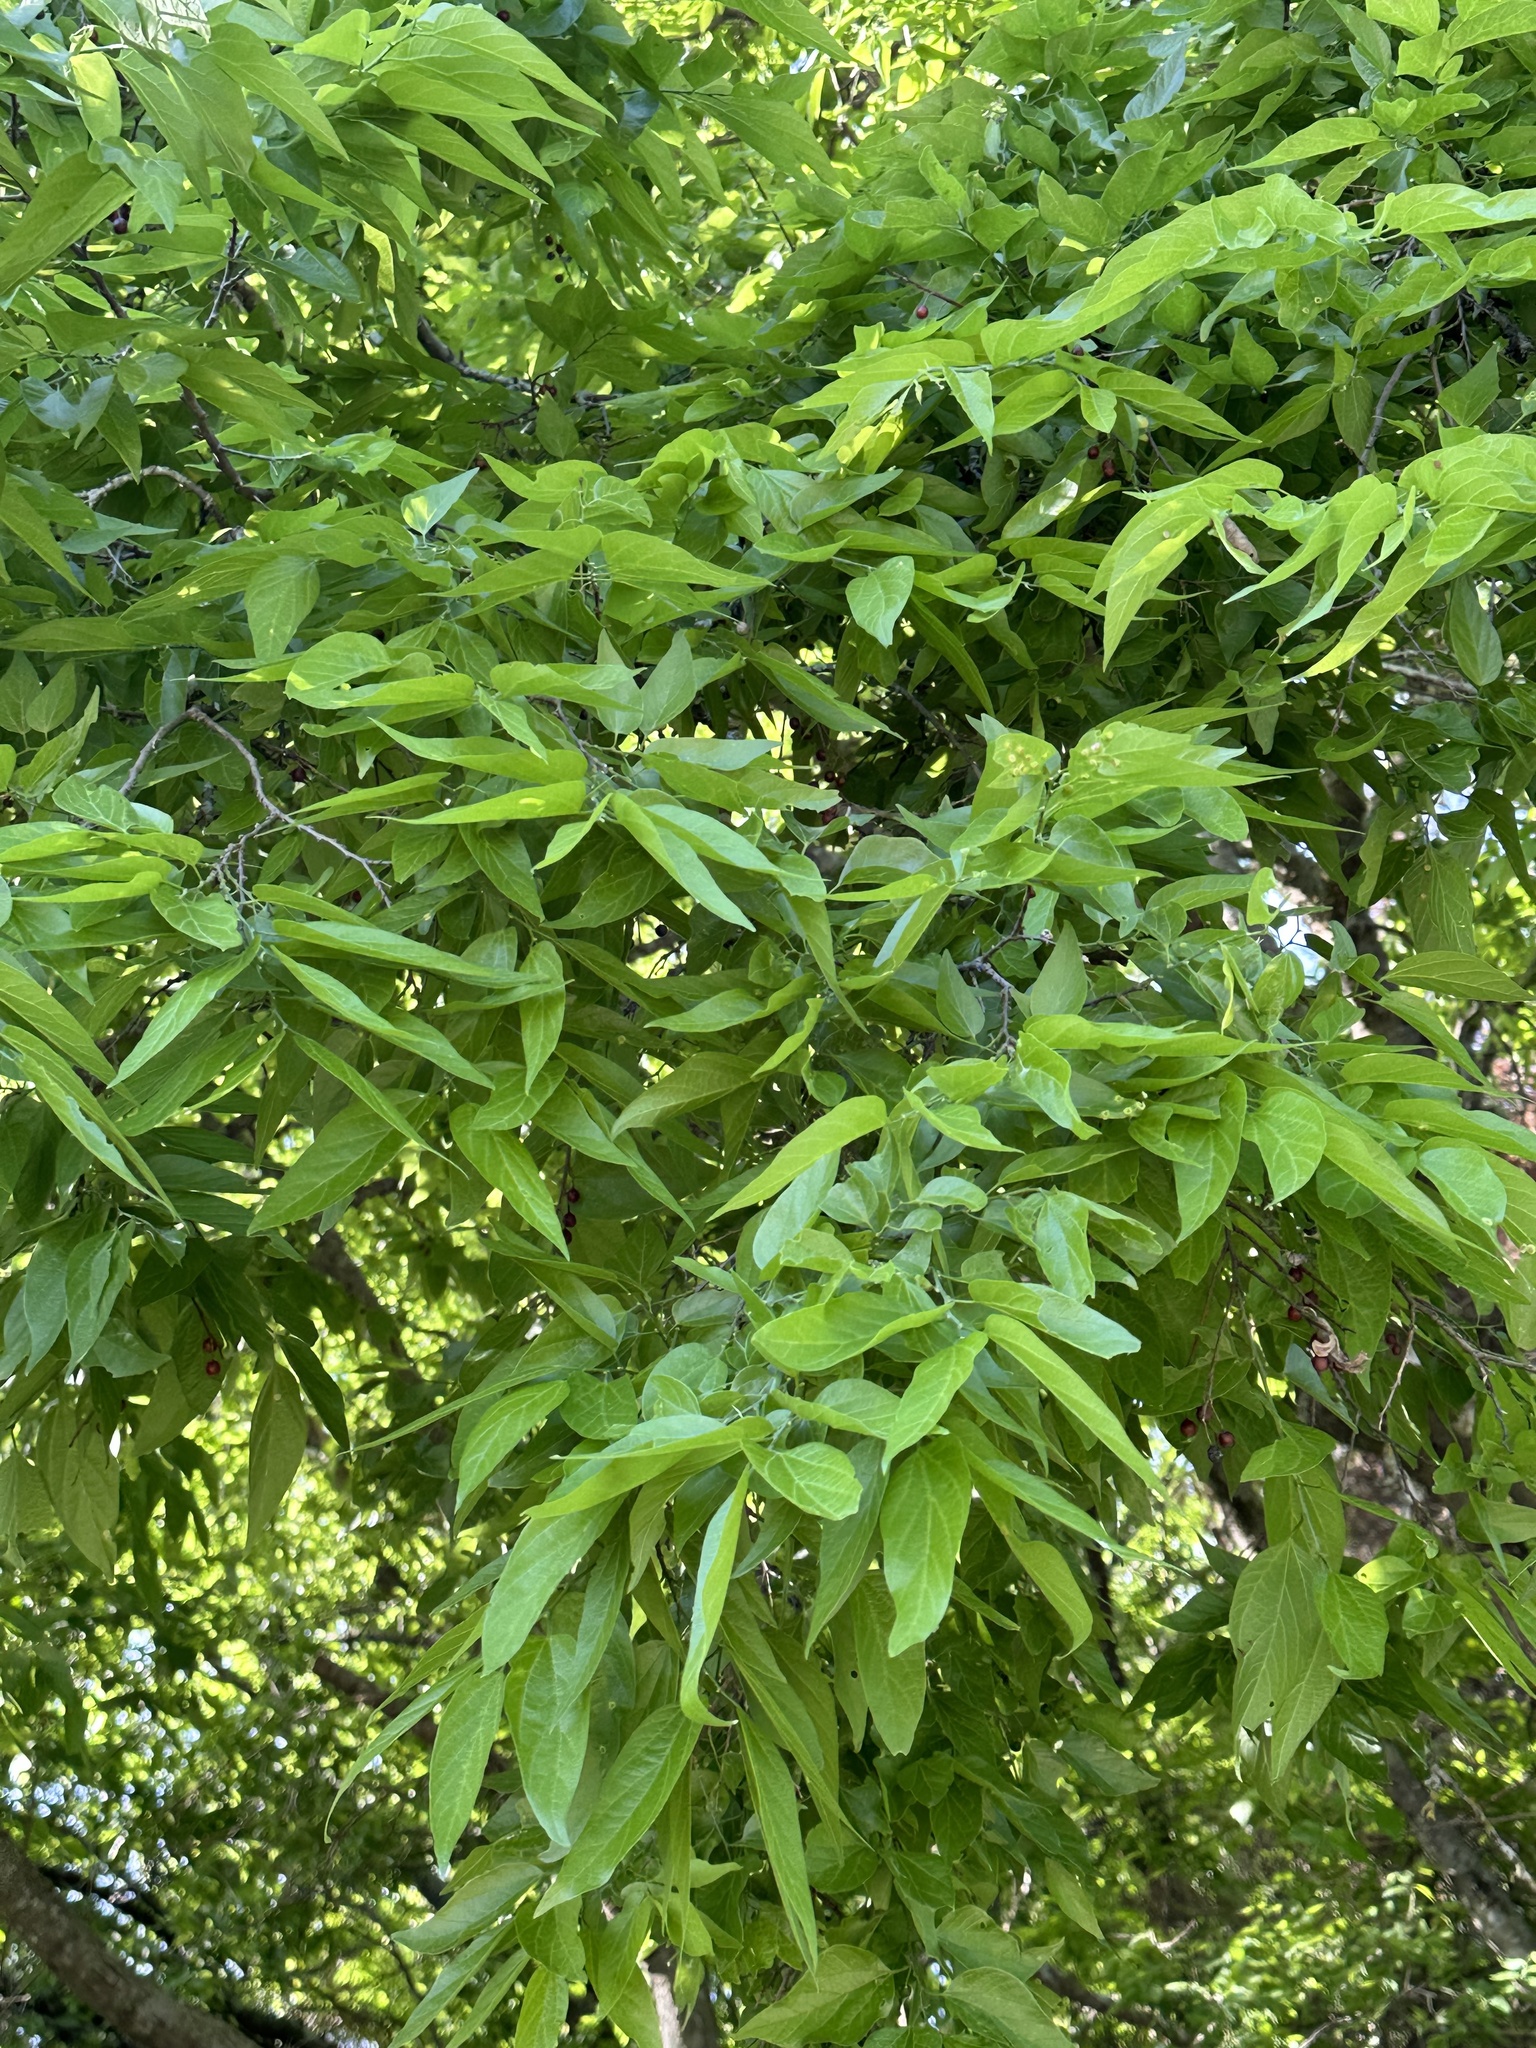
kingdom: Plantae
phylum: Tracheophyta
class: Magnoliopsida
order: Rosales
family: Cannabaceae
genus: Celtis
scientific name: Celtis laevigata
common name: Sugarberry
